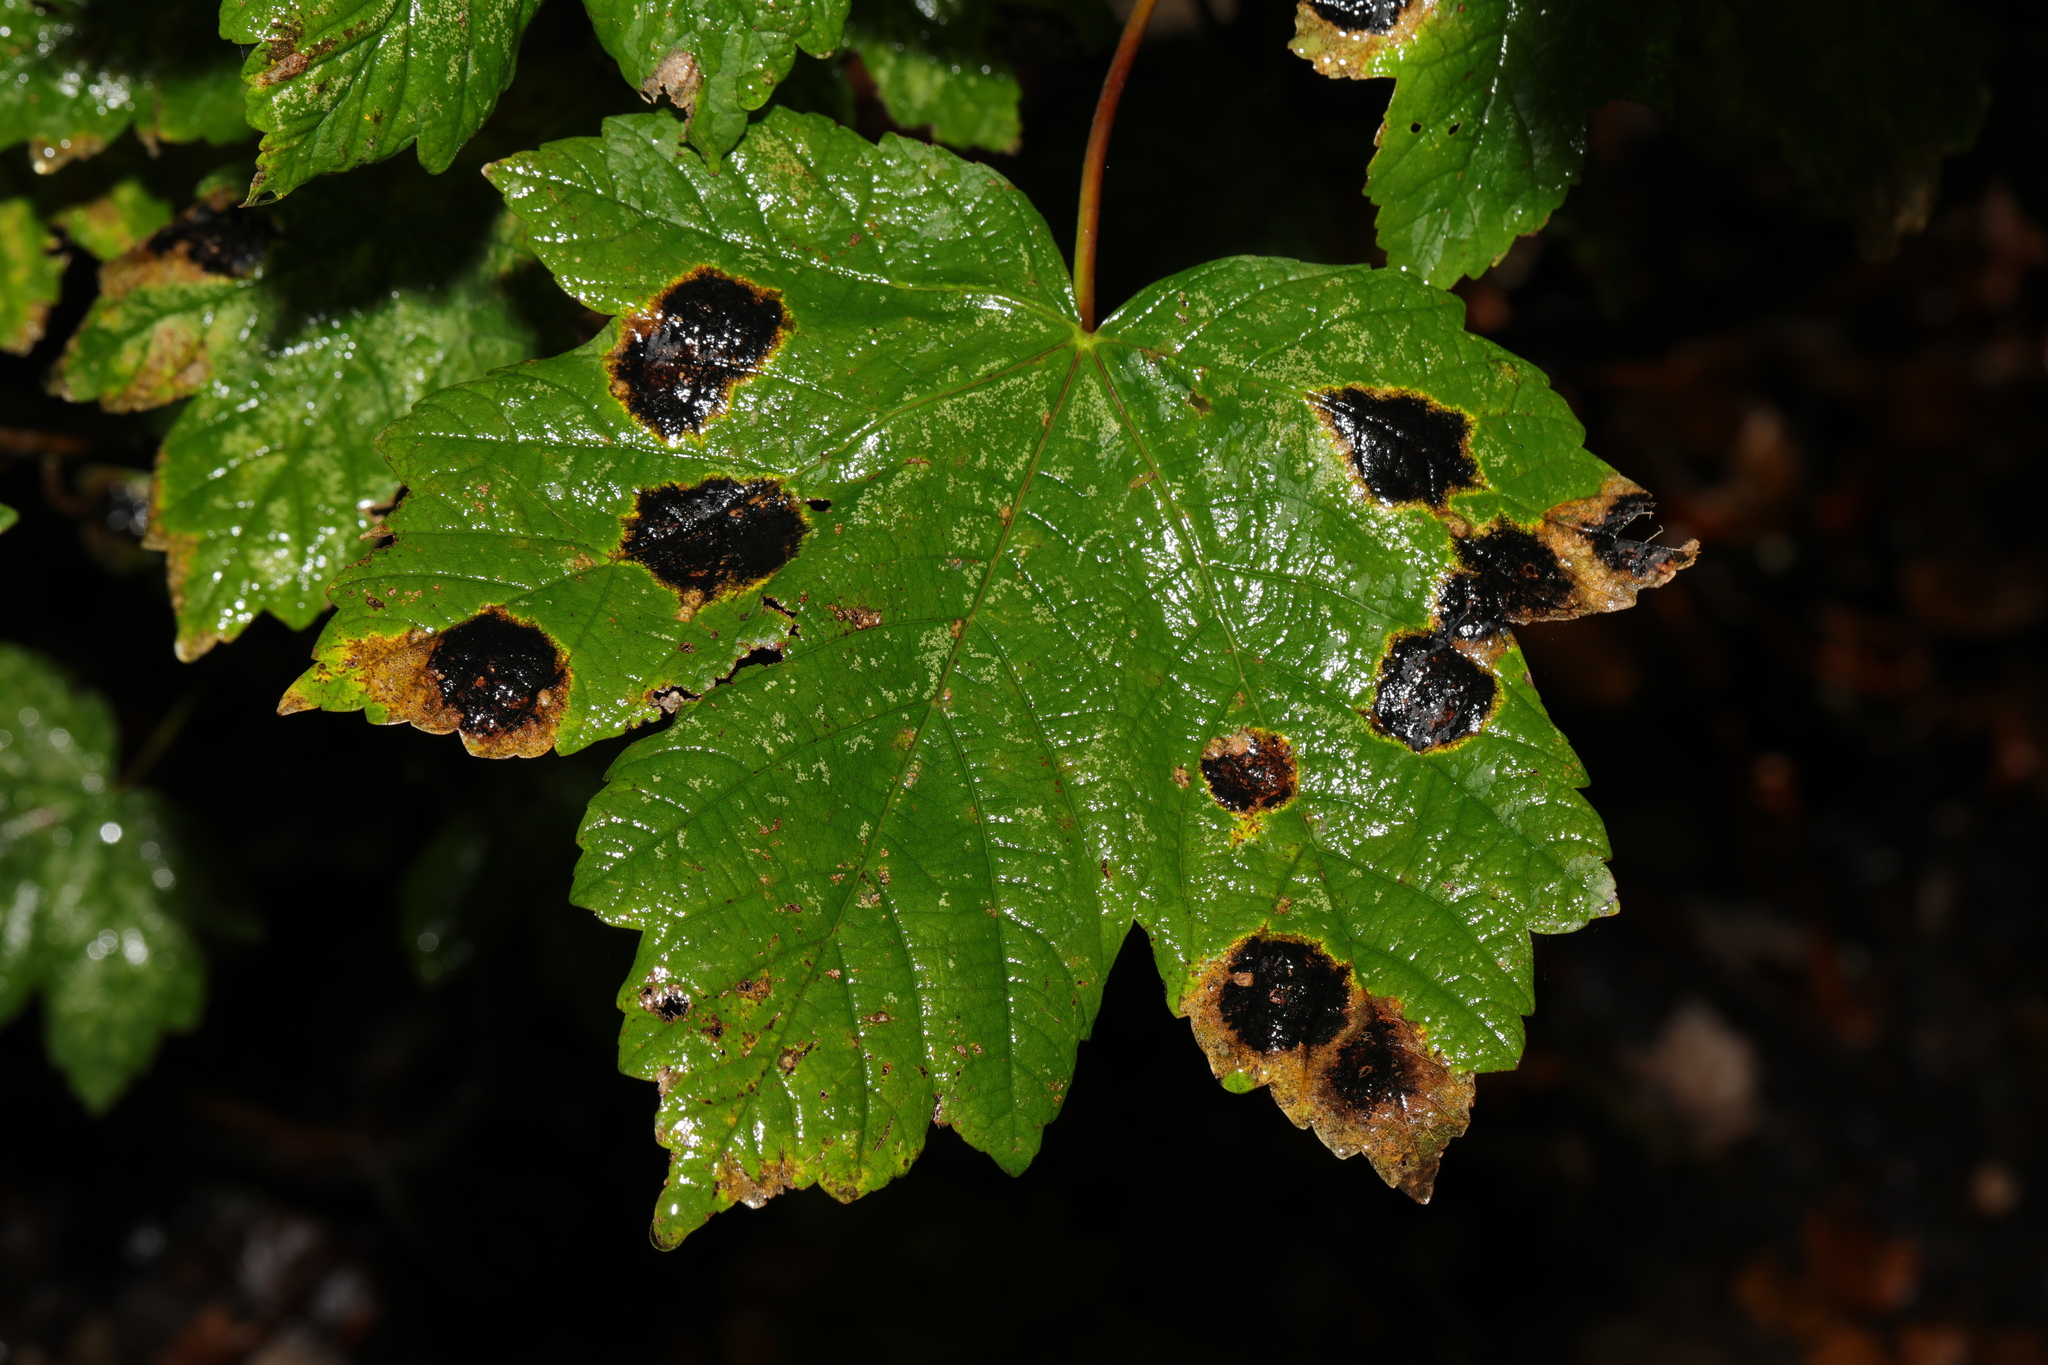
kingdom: Fungi
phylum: Ascomycota
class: Leotiomycetes
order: Rhytismatales
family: Rhytismataceae
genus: Rhytisma
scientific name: Rhytisma acerinum
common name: European tar spot
